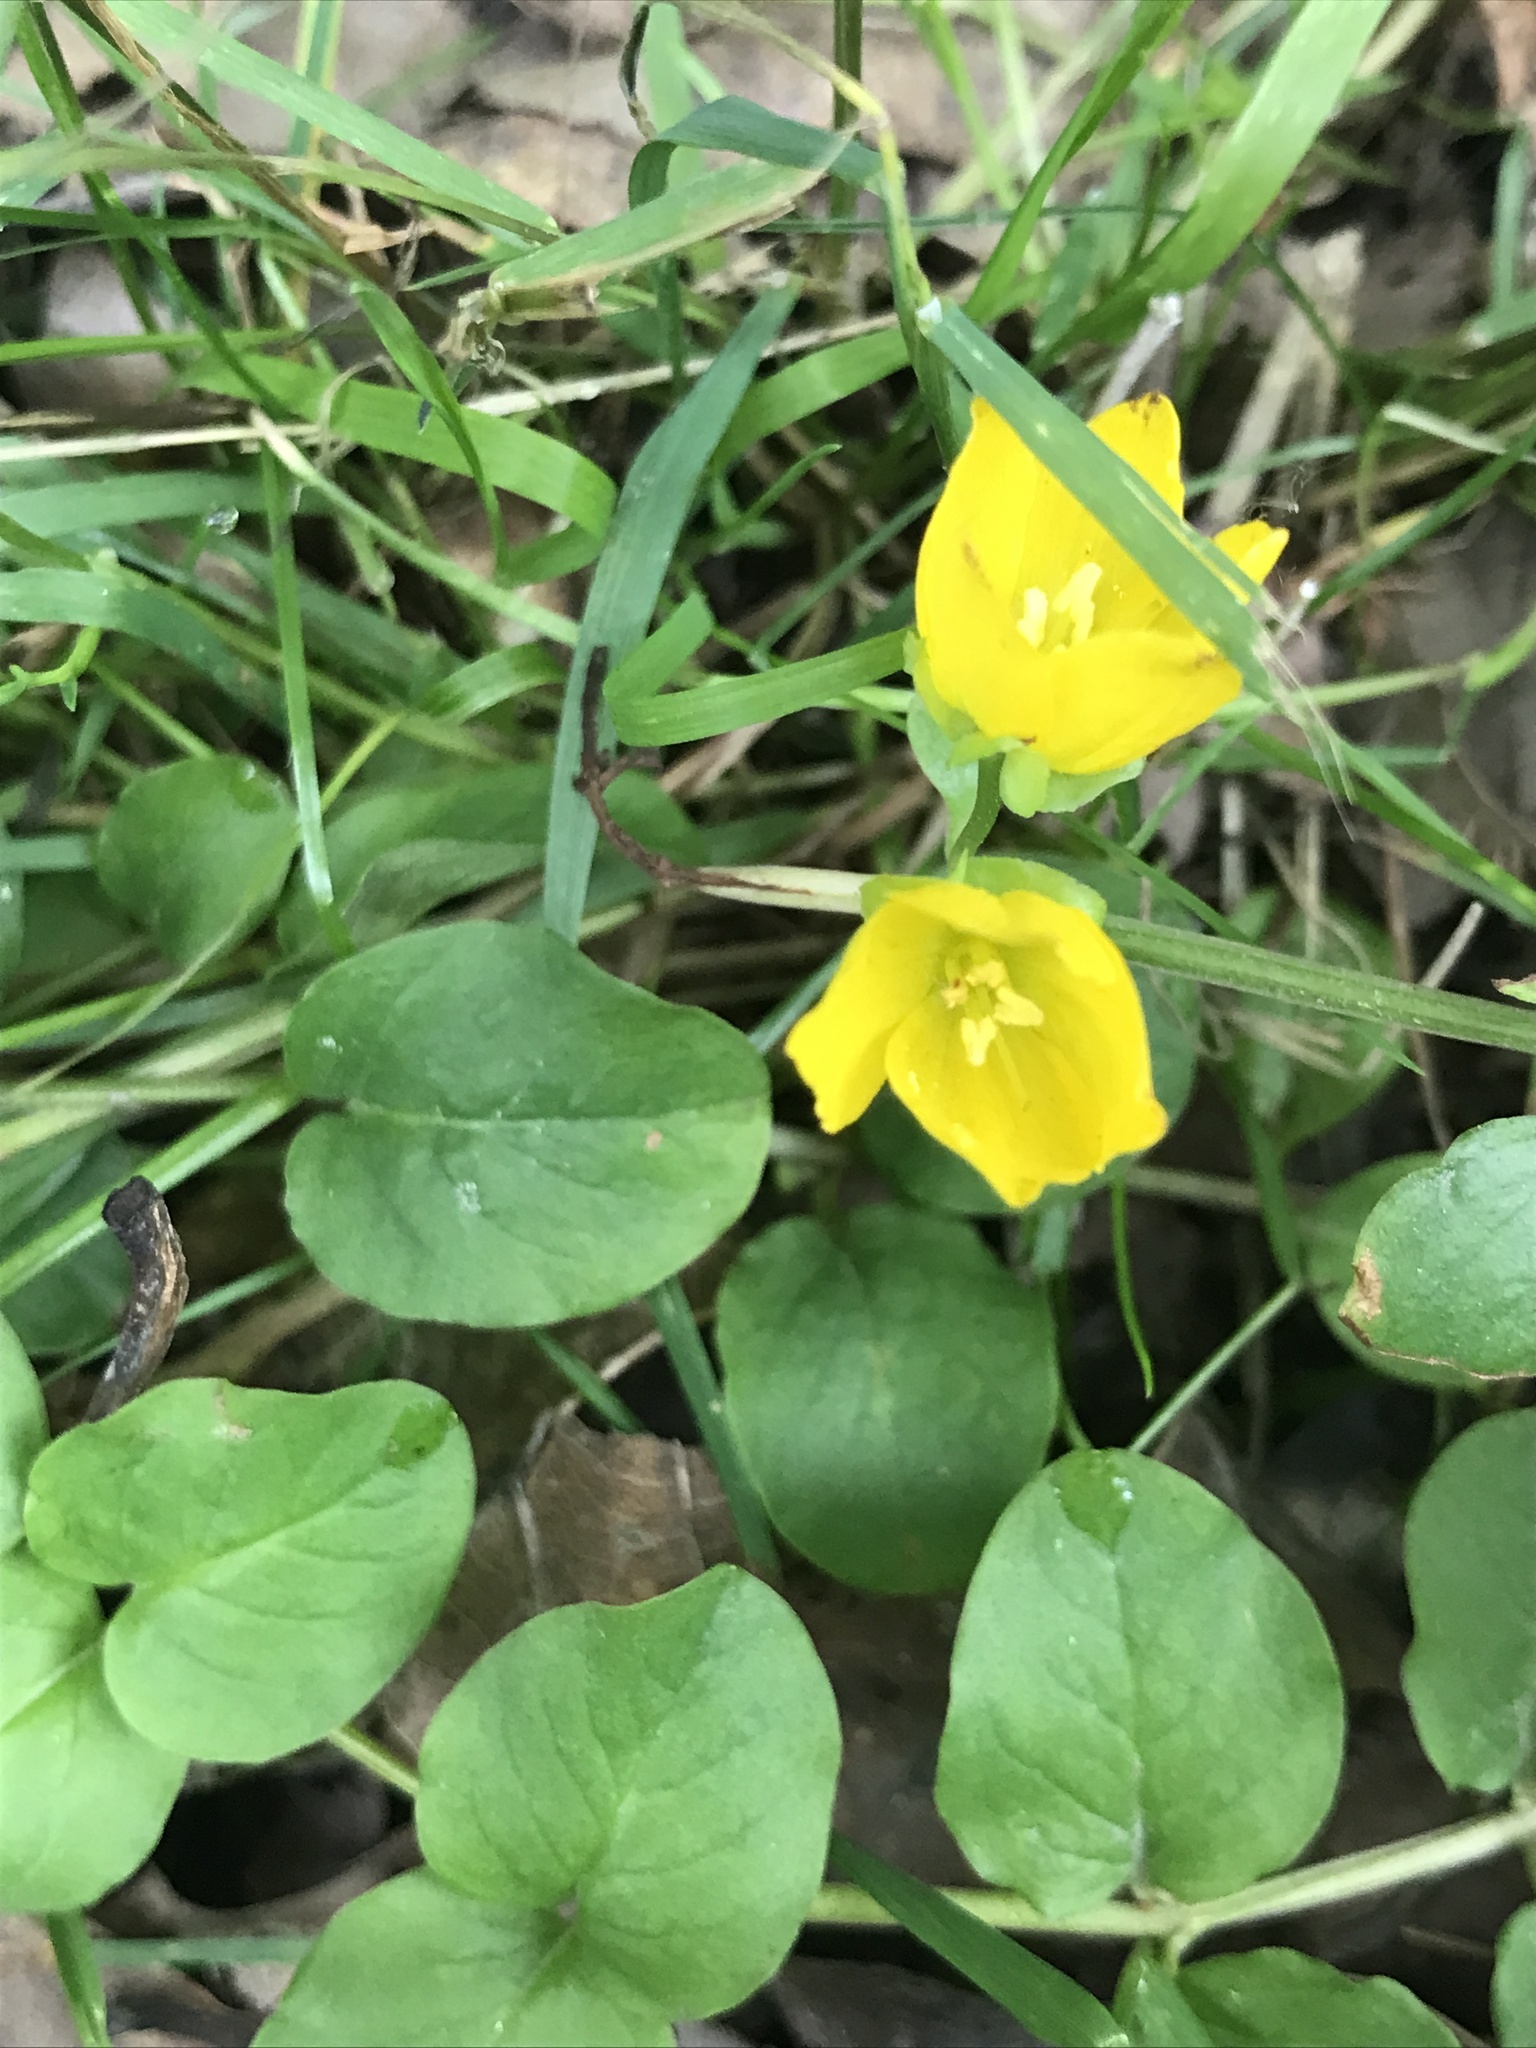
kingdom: Plantae
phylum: Tracheophyta
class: Magnoliopsida
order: Ericales
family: Primulaceae
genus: Lysimachia
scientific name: Lysimachia nummularia
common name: Moneywort
